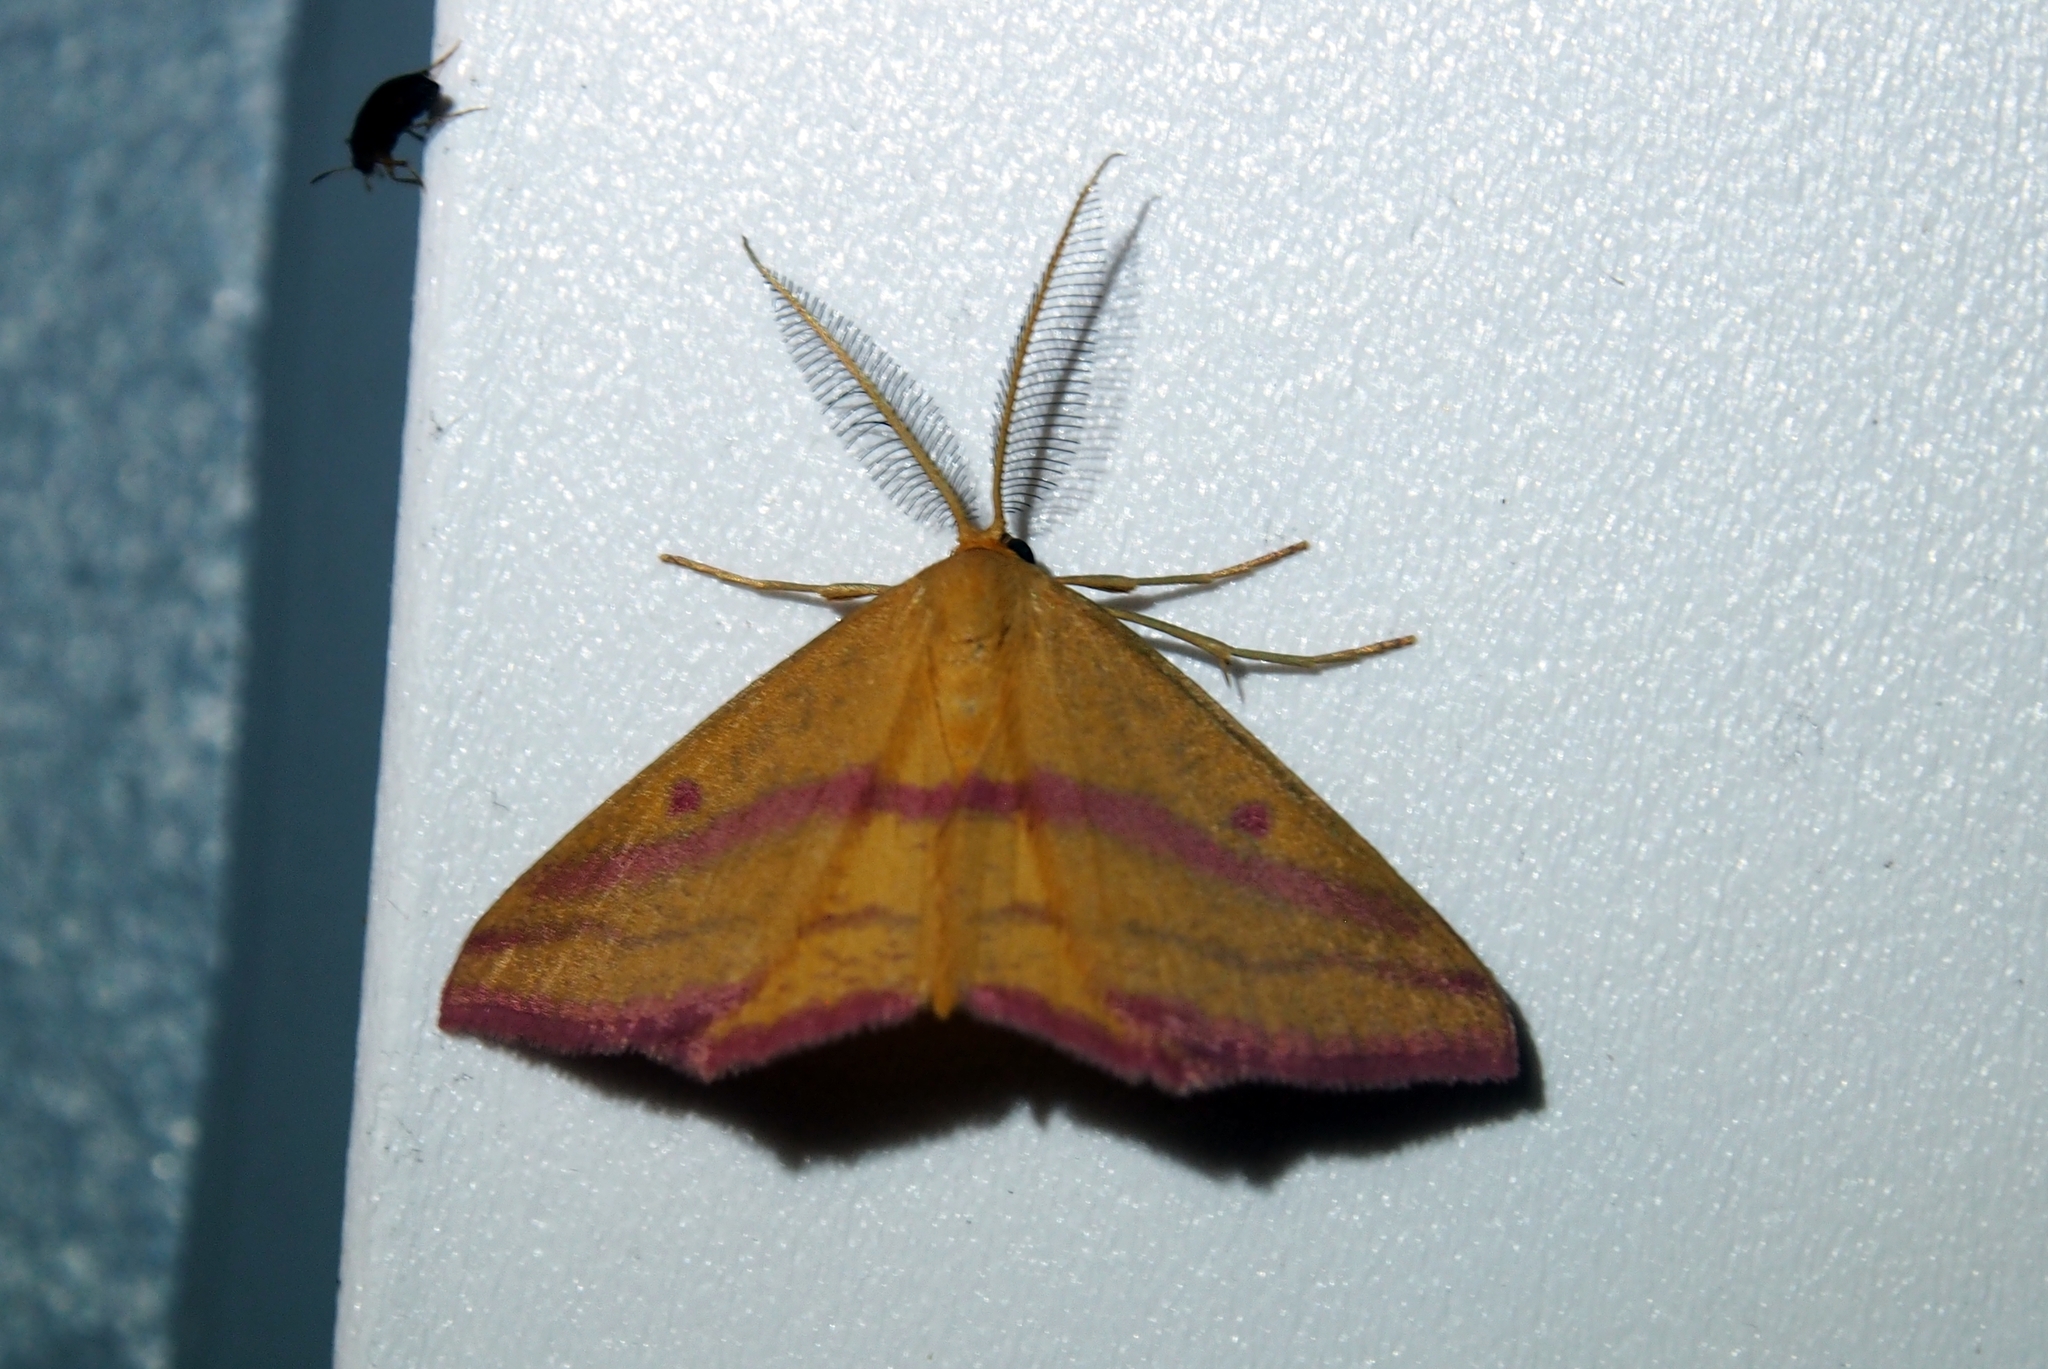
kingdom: Animalia
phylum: Arthropoda
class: Insecta
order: Lepidoptera
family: Geometridae
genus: Haematopis
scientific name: Haematopis grataria
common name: Chickweed geometer
